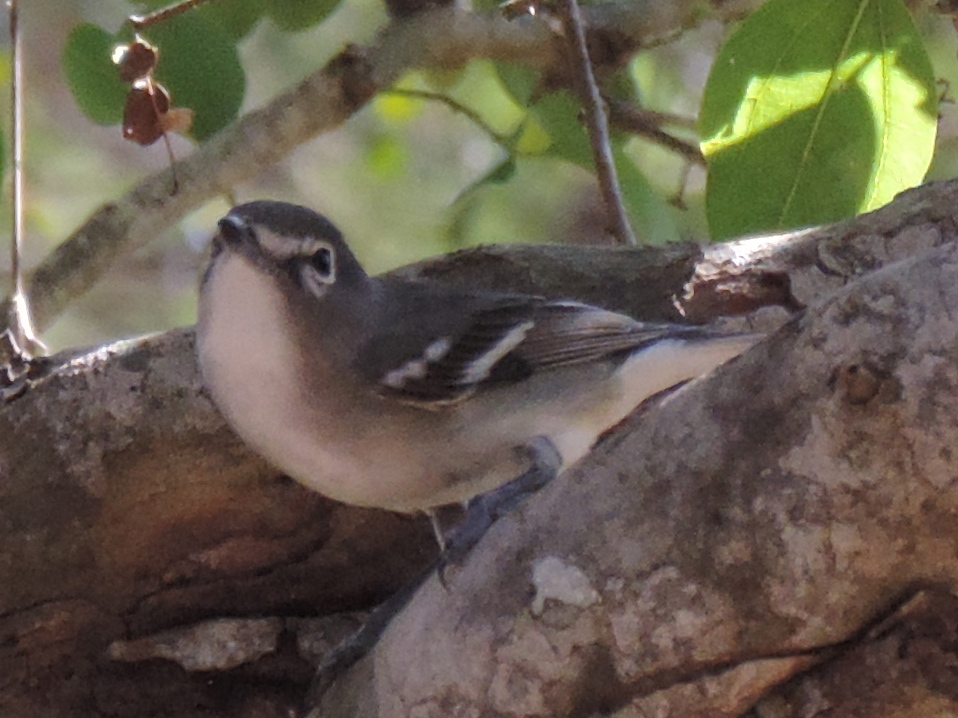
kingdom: Animalia
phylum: Chordata
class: Aves
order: Passeriformes
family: Vireonidae
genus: Vireo
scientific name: Vireo plumbeus
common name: Plumbeous vireo
